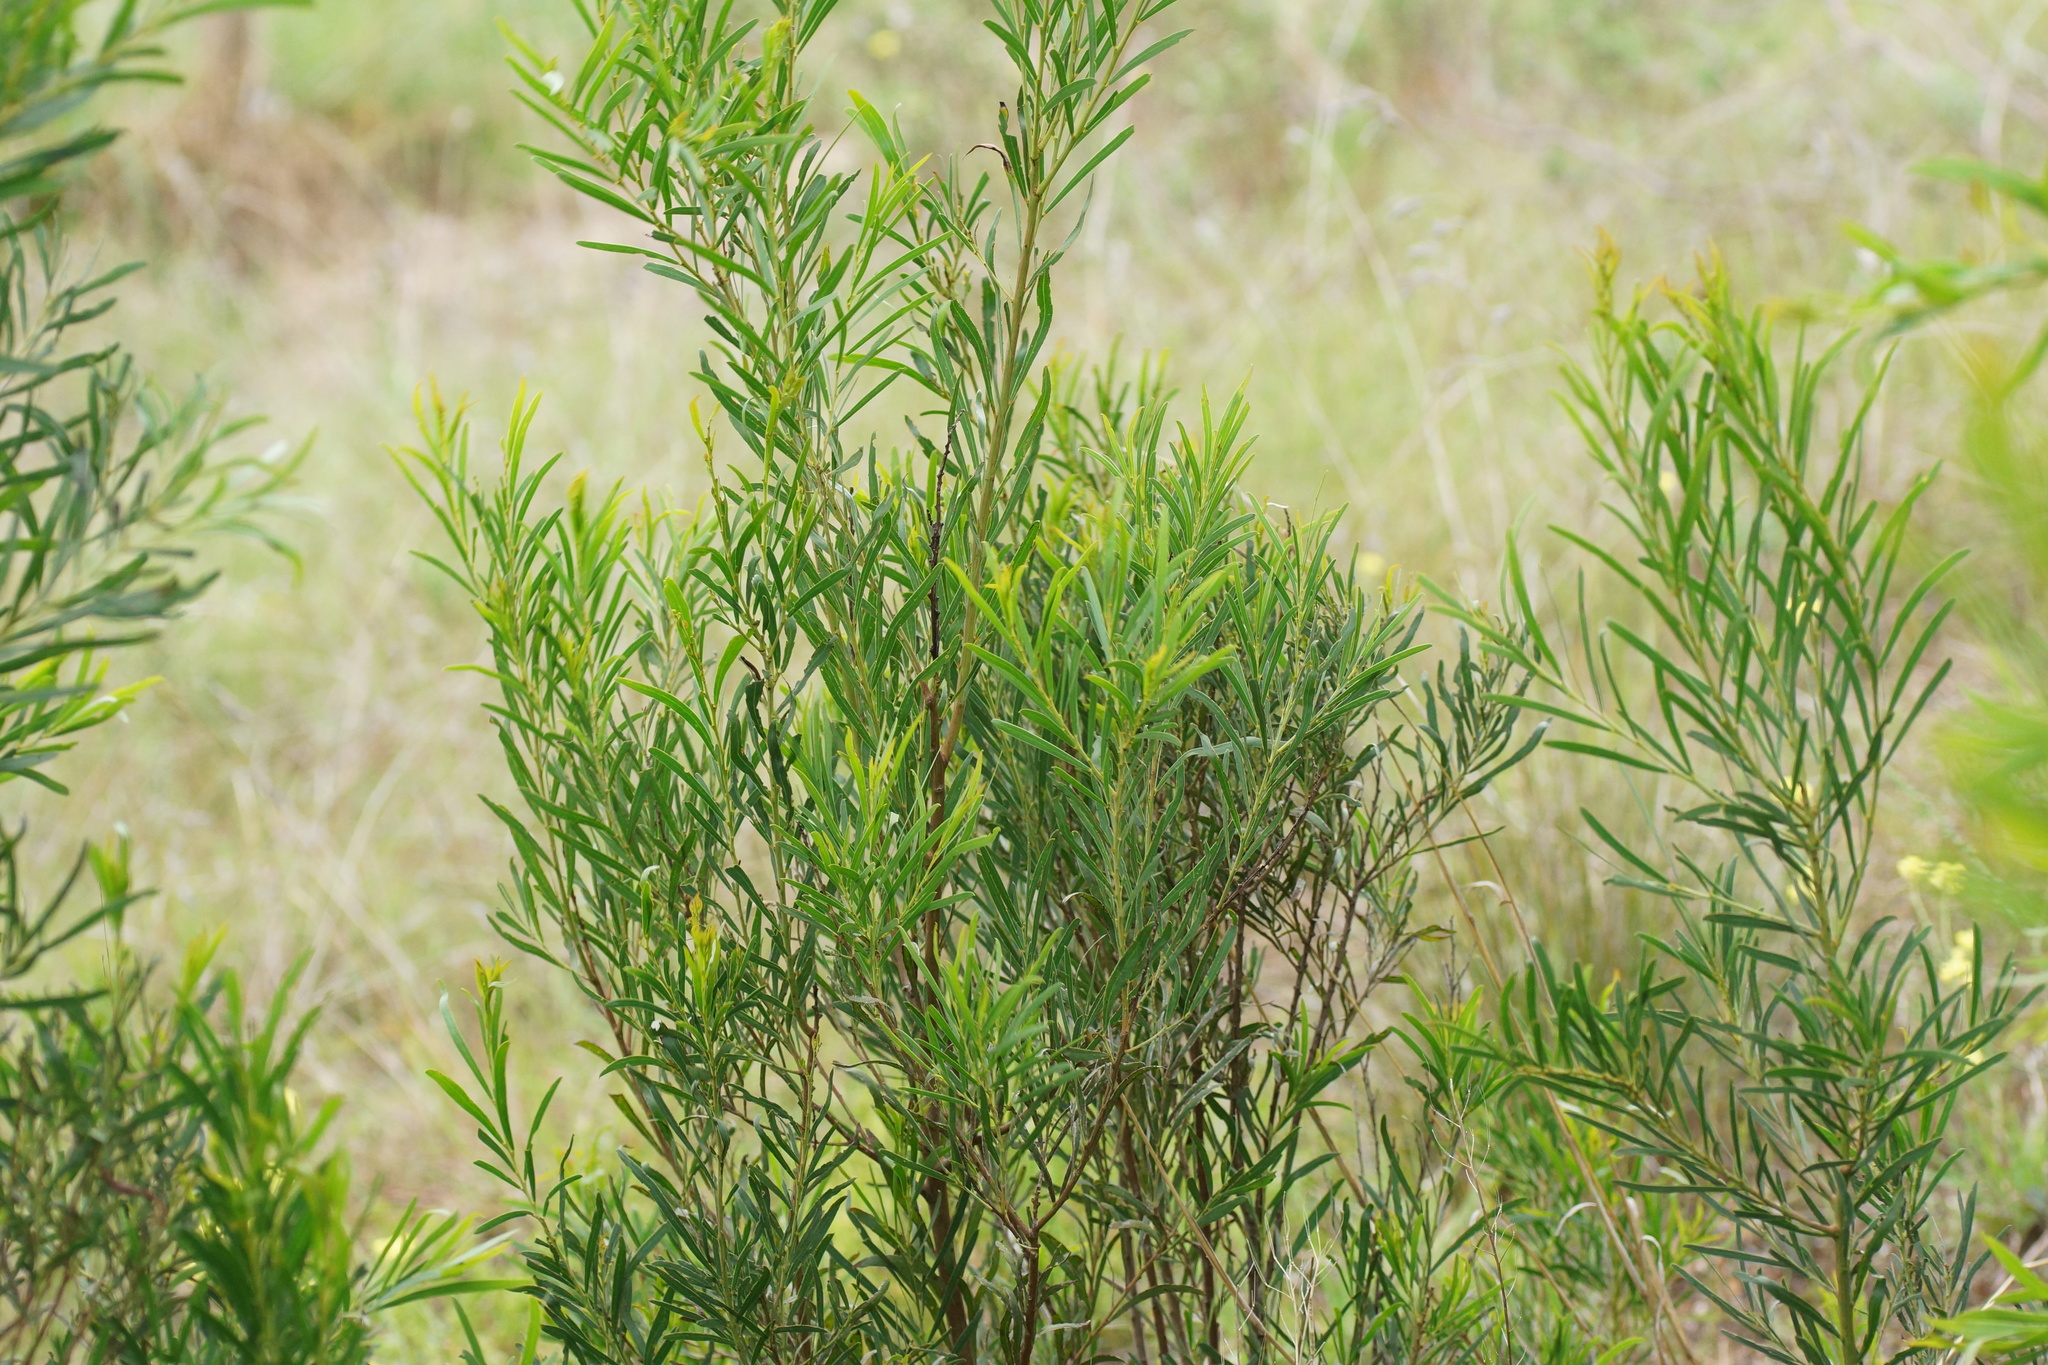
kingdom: Plantae
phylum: Tracheophyta
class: Magnoliopsida
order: Fabales
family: Fabaceae
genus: Acacia
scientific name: Acacia uncifolia
